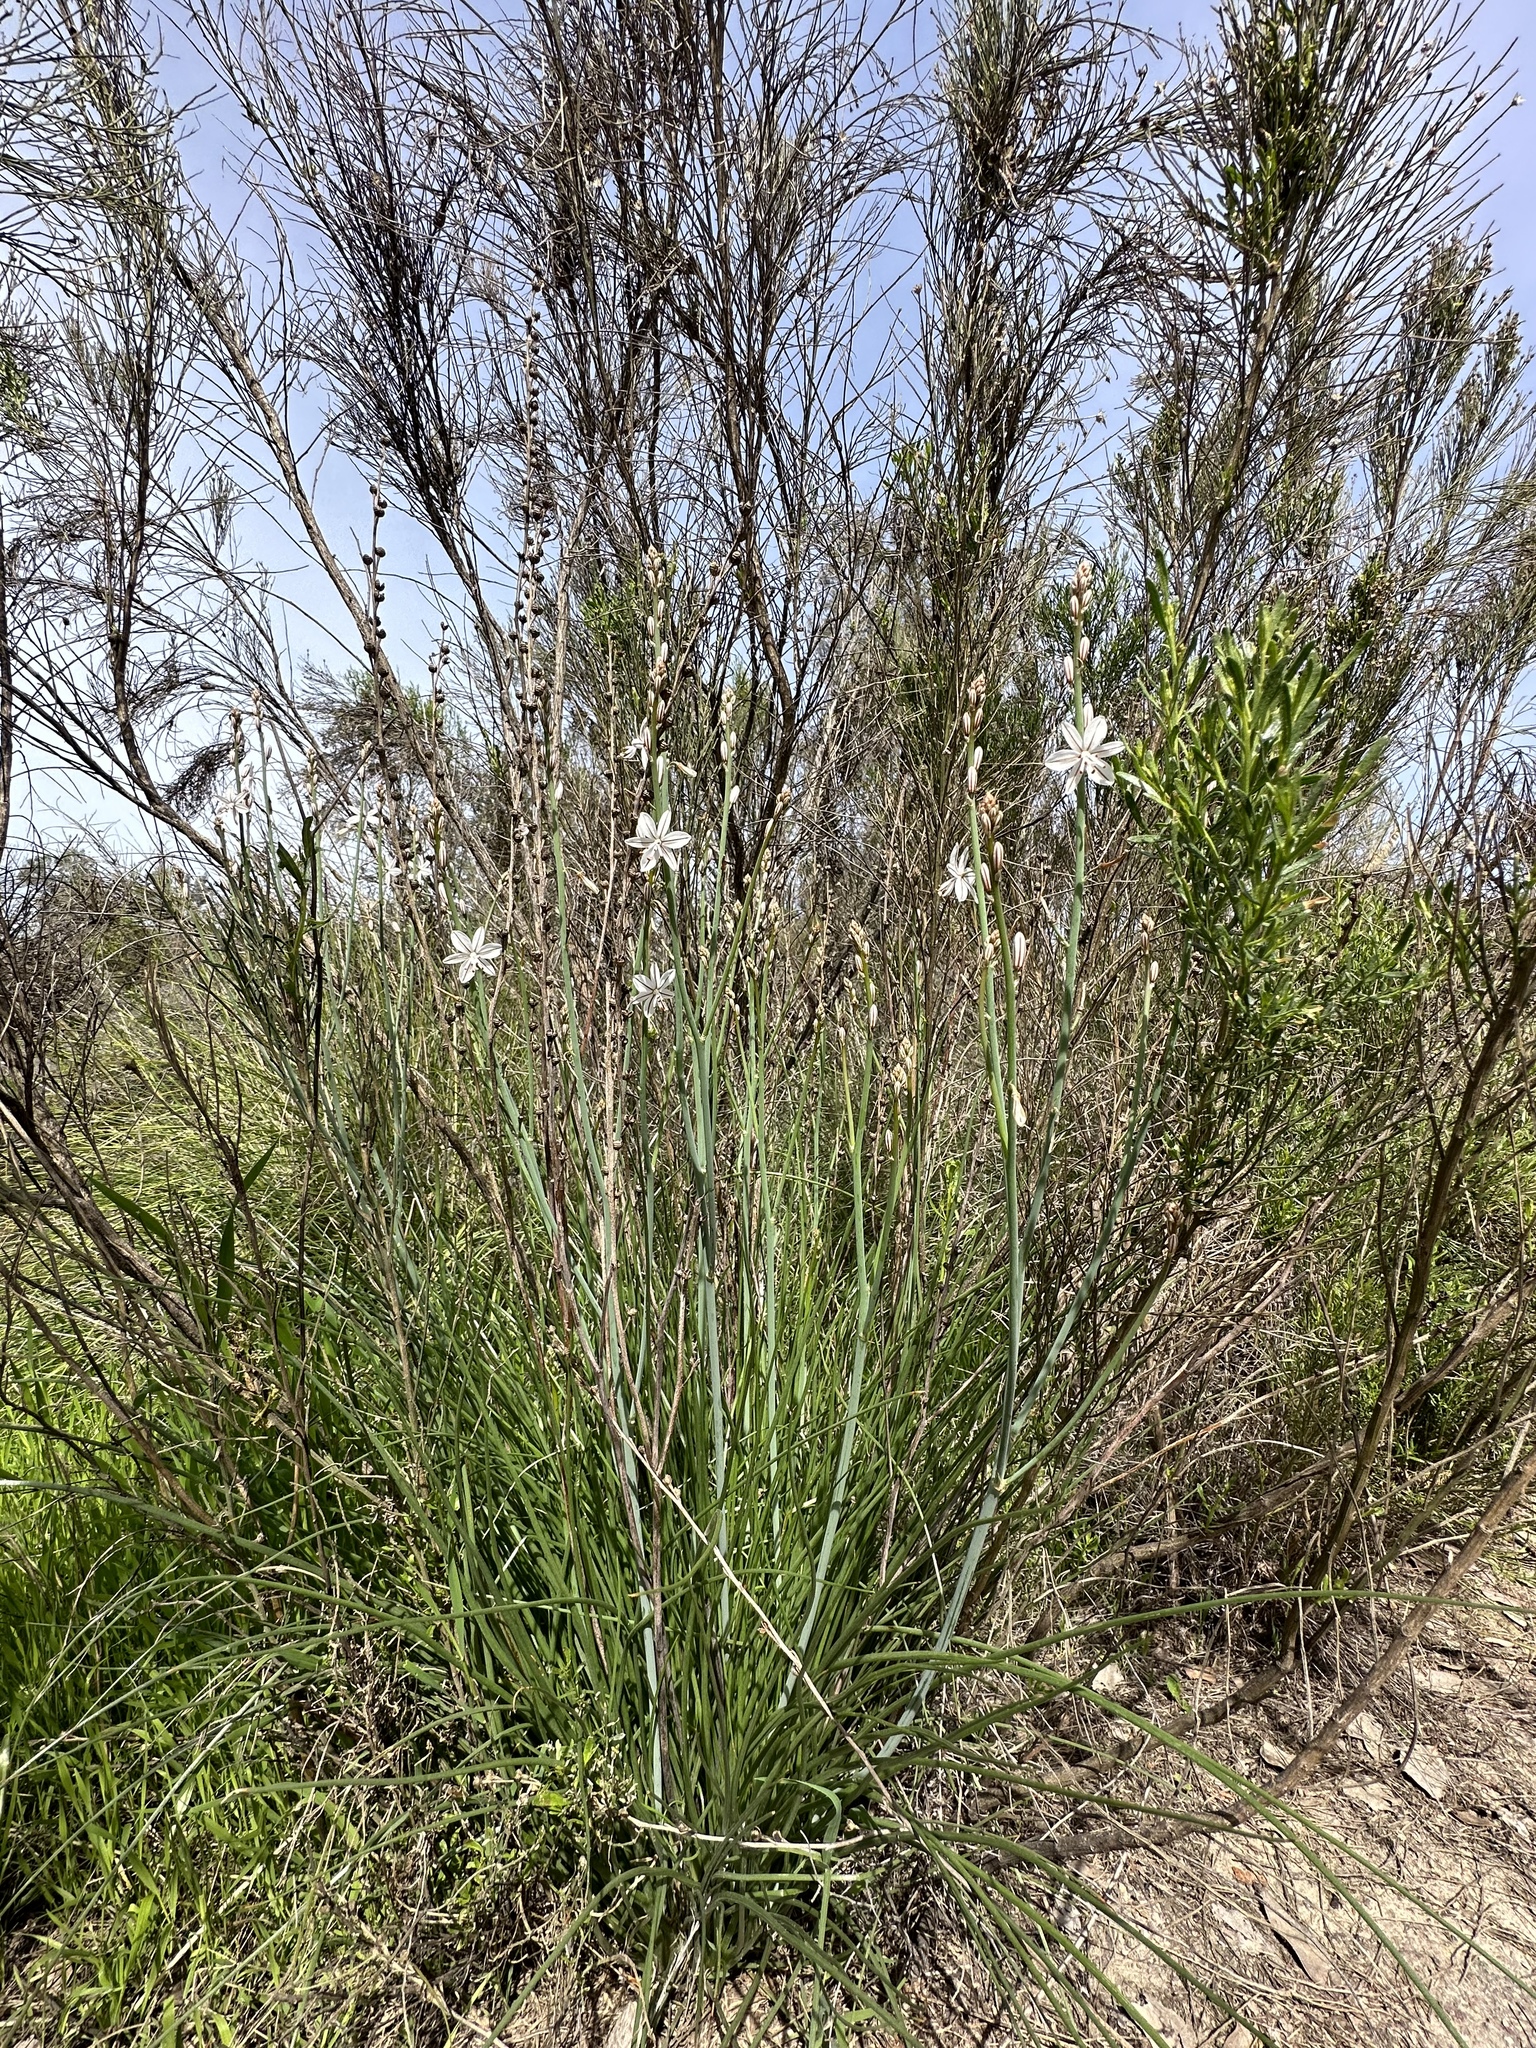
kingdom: Plantae
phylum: Tracheophyta
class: Liliopsida
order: Asparagales
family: Asphodelaceae
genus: Asphodelus
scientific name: Asphodelus fistulosus
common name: Onionweed
